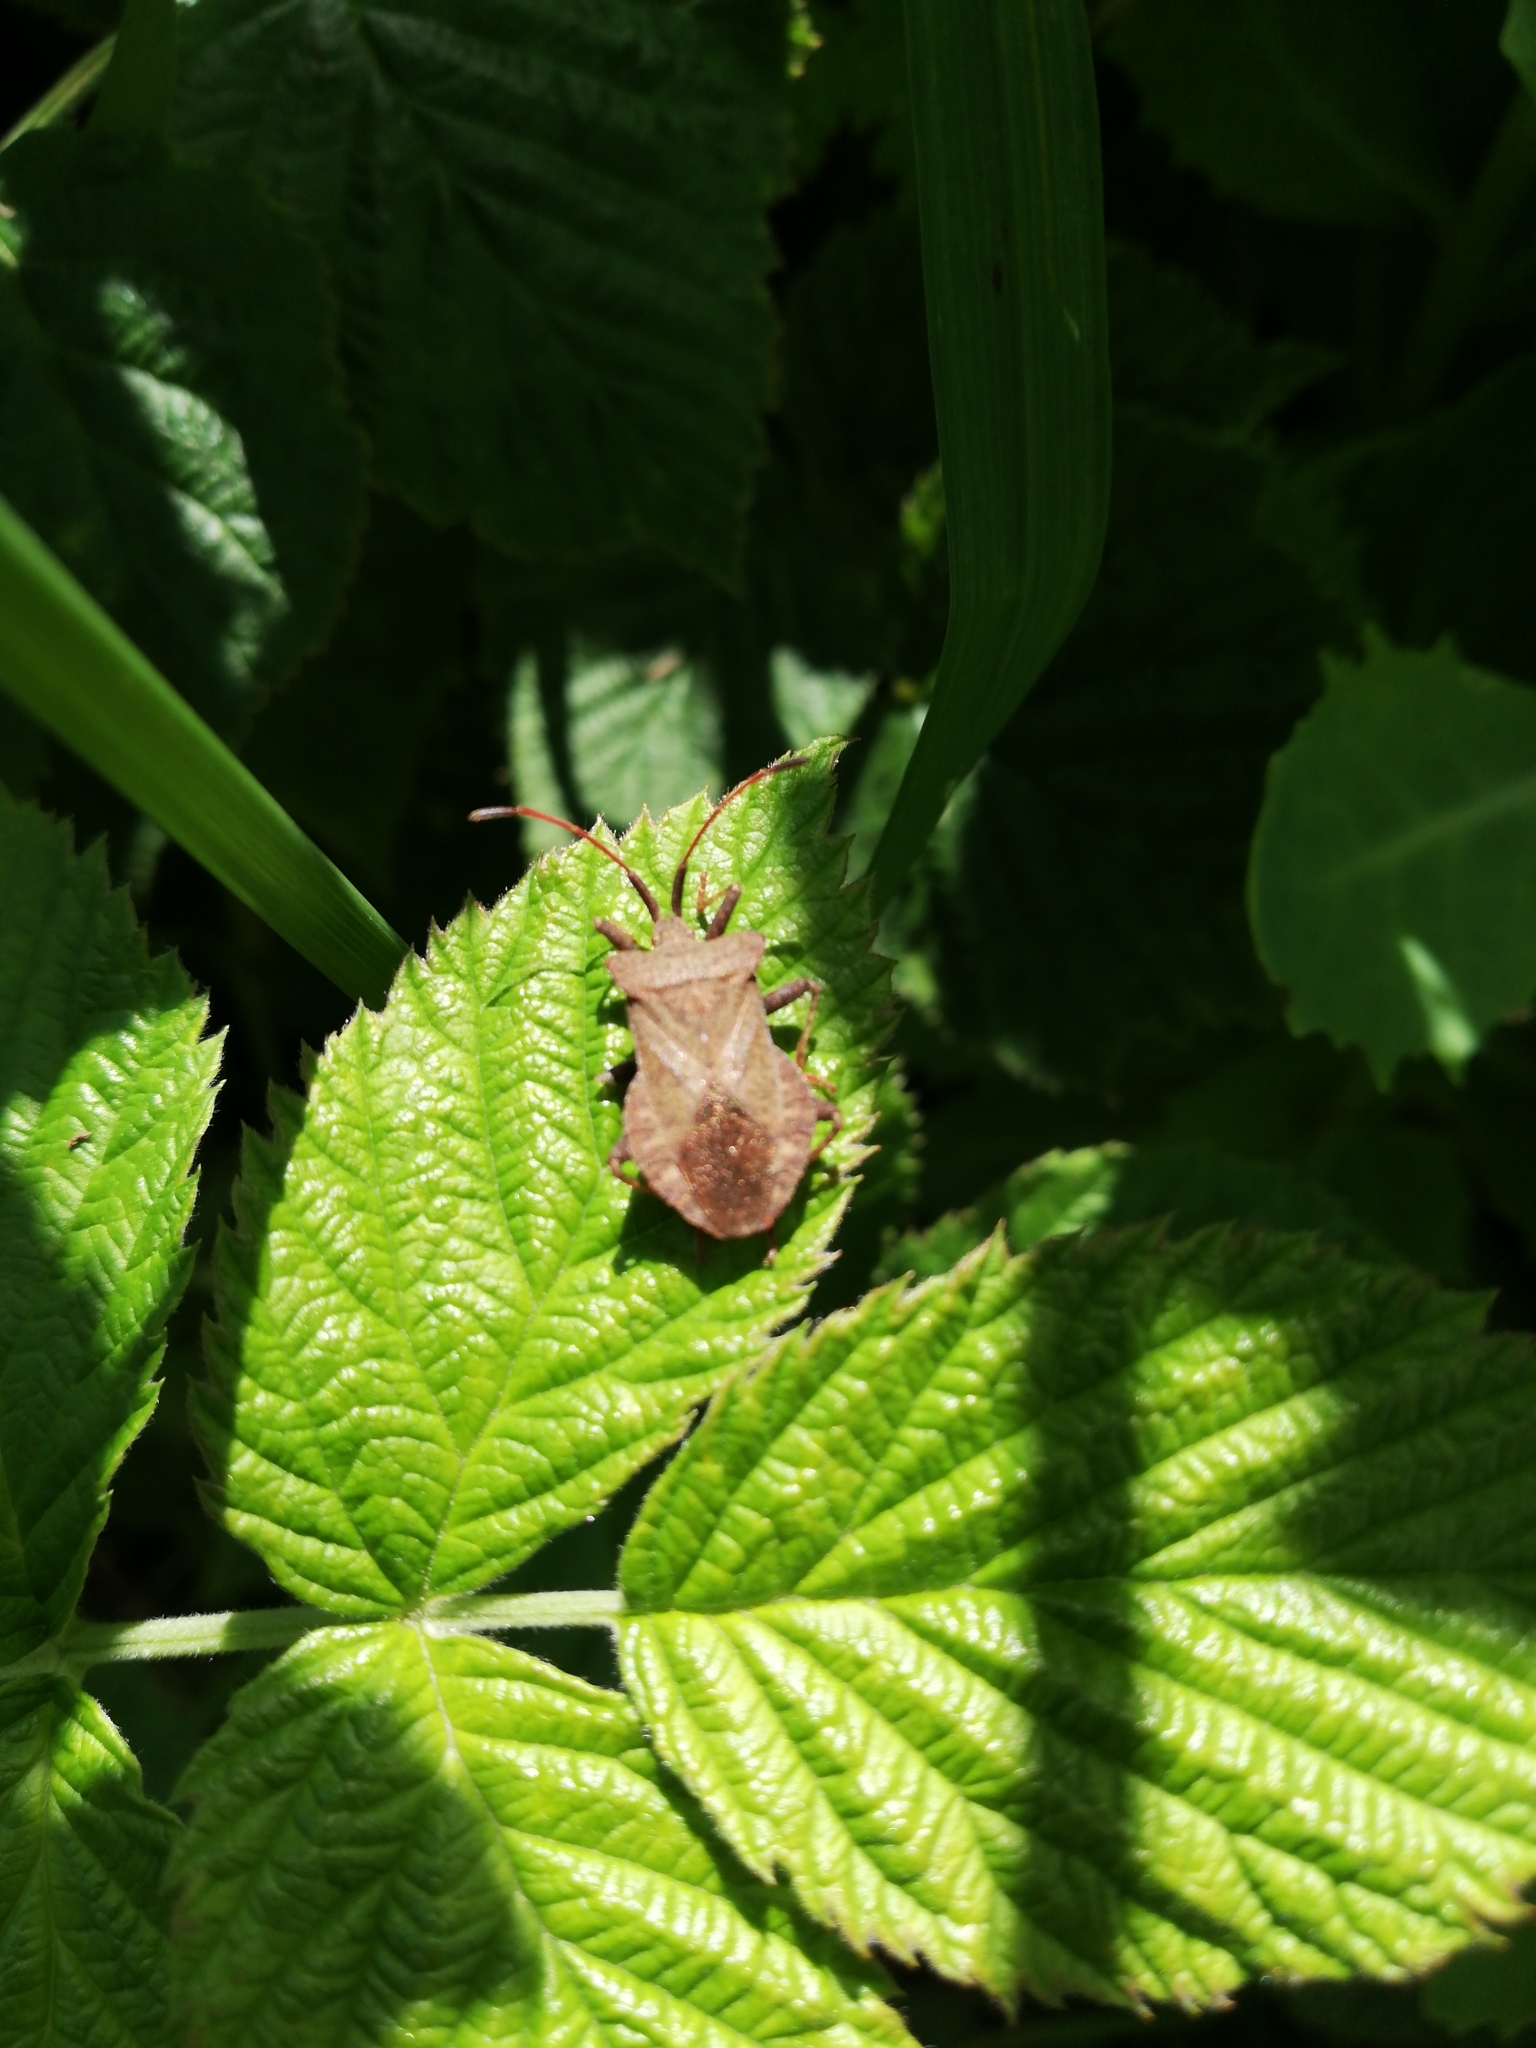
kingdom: Animalia
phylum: Arthropoda
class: Insecta
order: Hemiptera
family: Coreidae
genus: Coreus
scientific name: Coreus marginatus
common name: Dock bug
